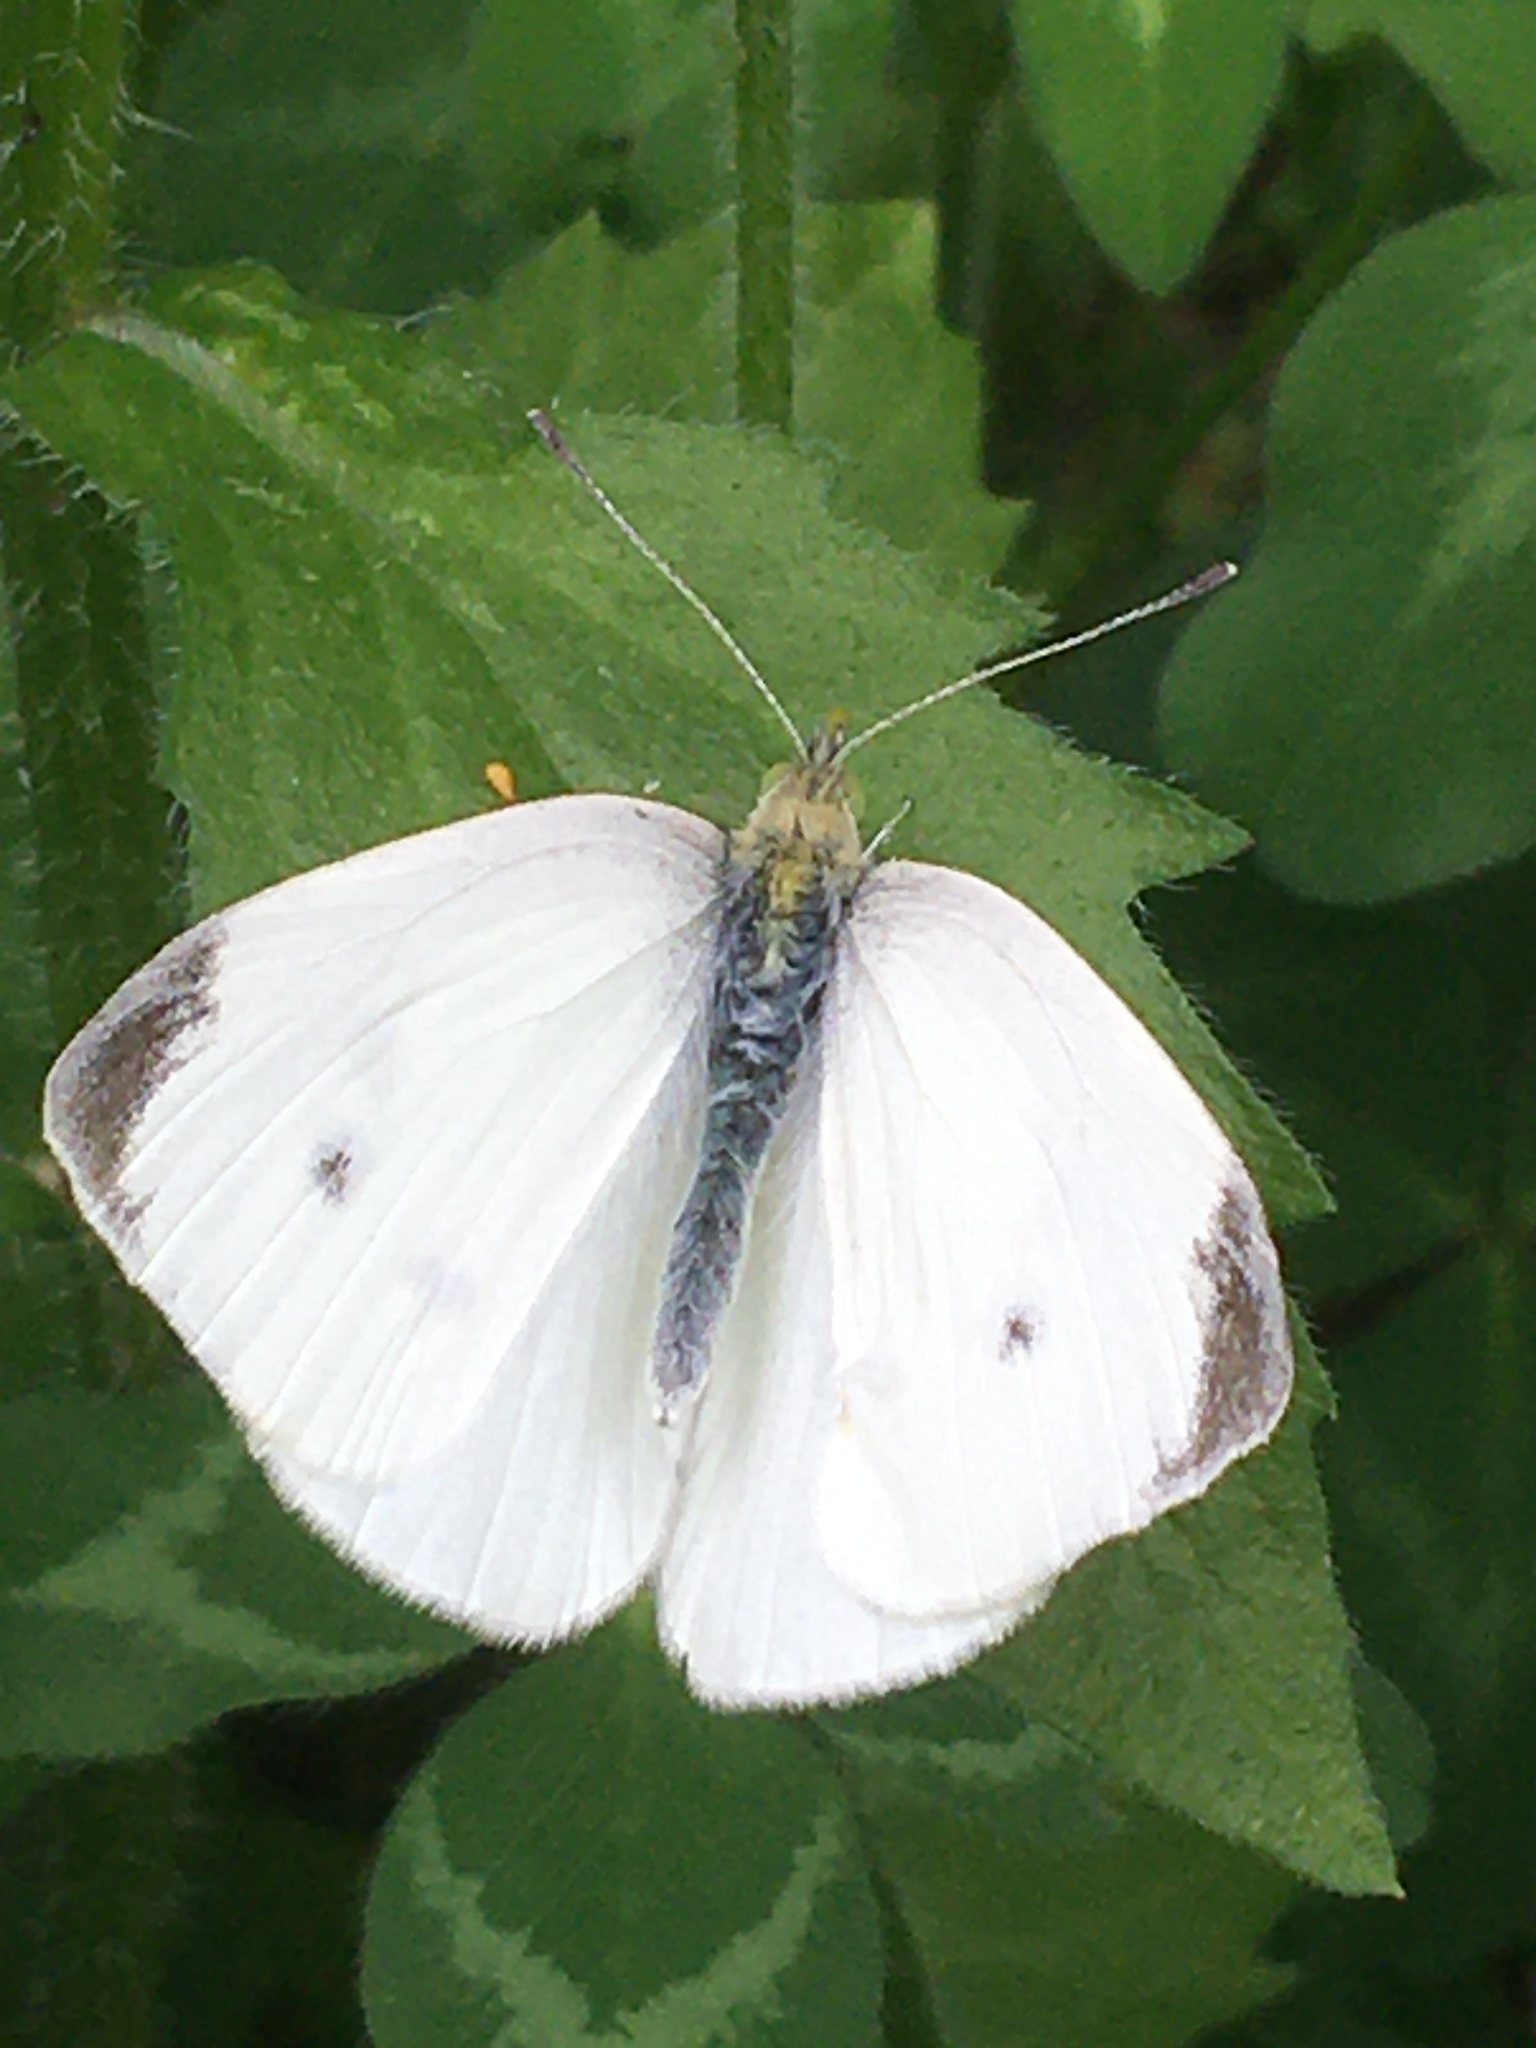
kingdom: Animalia
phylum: Arthropoda
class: Insecta
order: Lepidoptera
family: Pieridae
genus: Pieris
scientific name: Pieris rapae
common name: Small white
